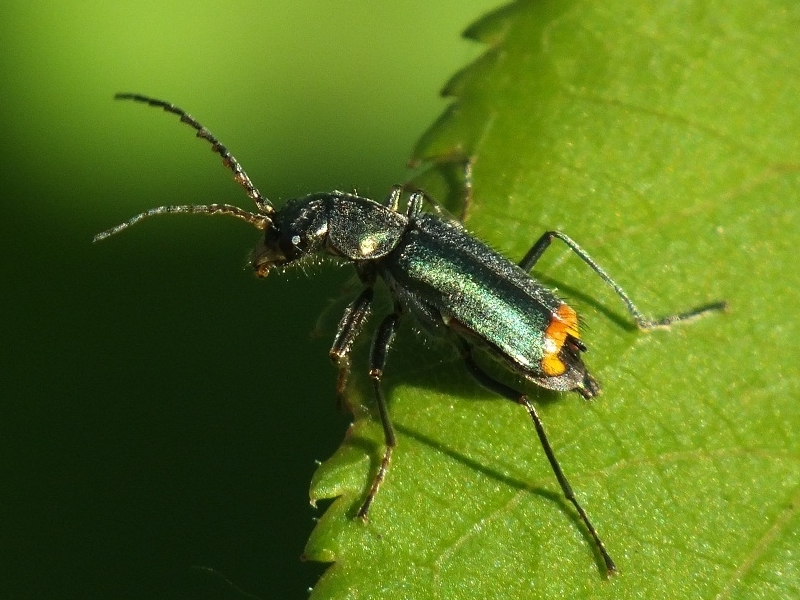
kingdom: Animalia
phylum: Arthropoda
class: Insecta
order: Coleoptera
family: Malachiidae
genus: Clanoptilus
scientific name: Clanoptilus geniculatus
